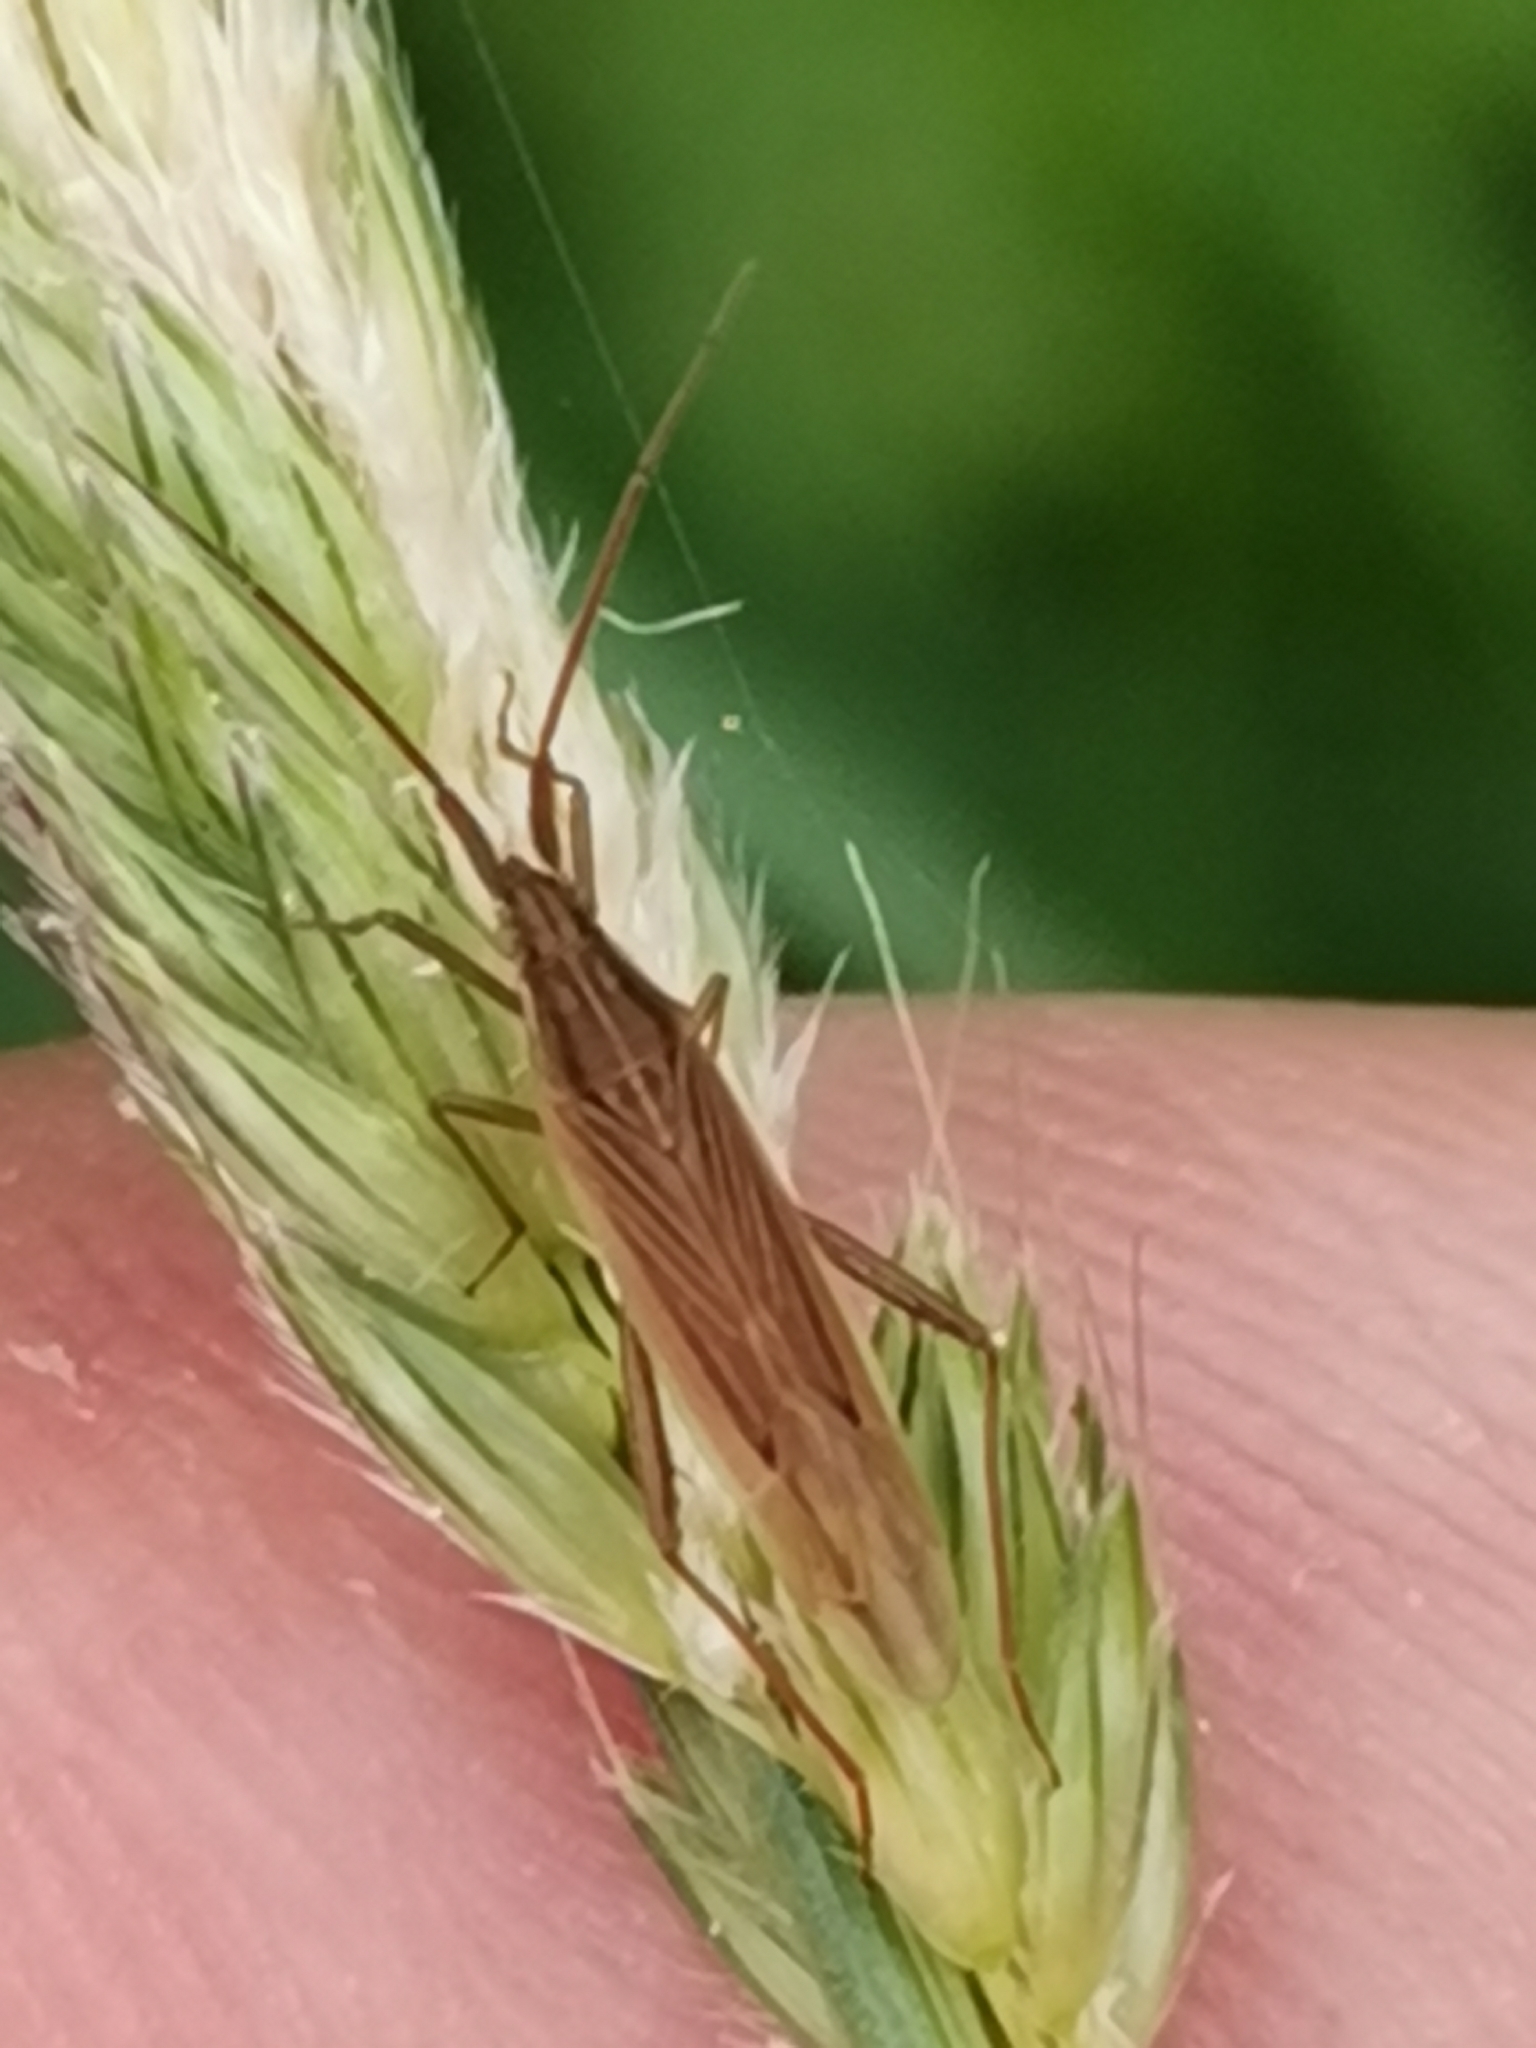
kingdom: Animalia
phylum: Arthropoda
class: Insecta
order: Hemiptera
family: Miridae
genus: Stenodema
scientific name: Stenodema calcarata
